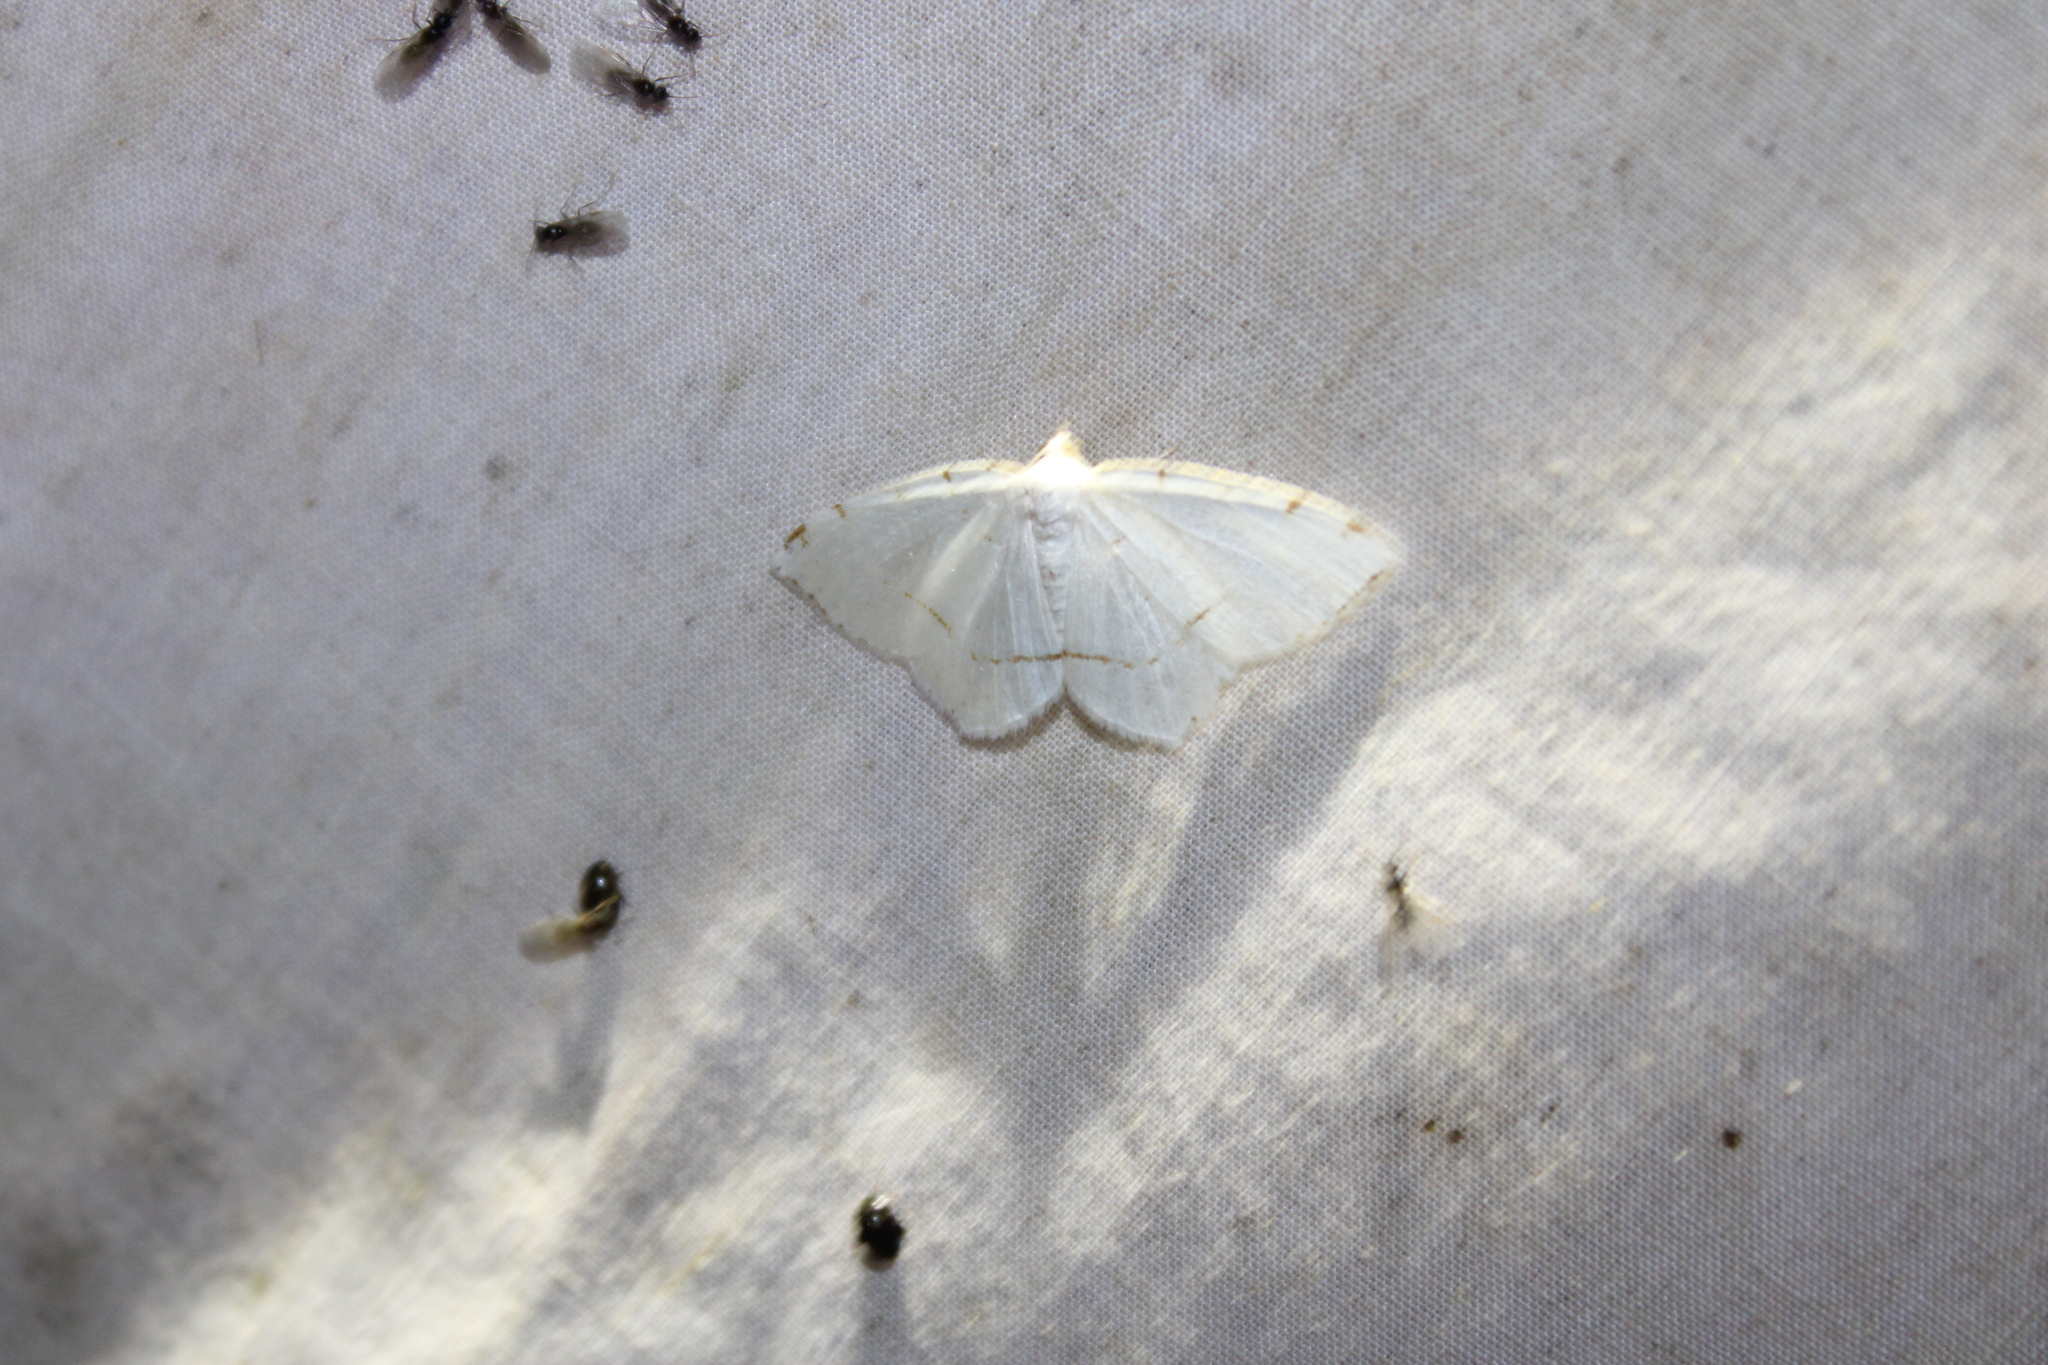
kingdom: Animalia
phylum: Arthropoda
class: Insecta
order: Lepidoptera
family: Geometridae
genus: Macaria
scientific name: Macaria pustularia
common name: Lesser maple spanworm moth
